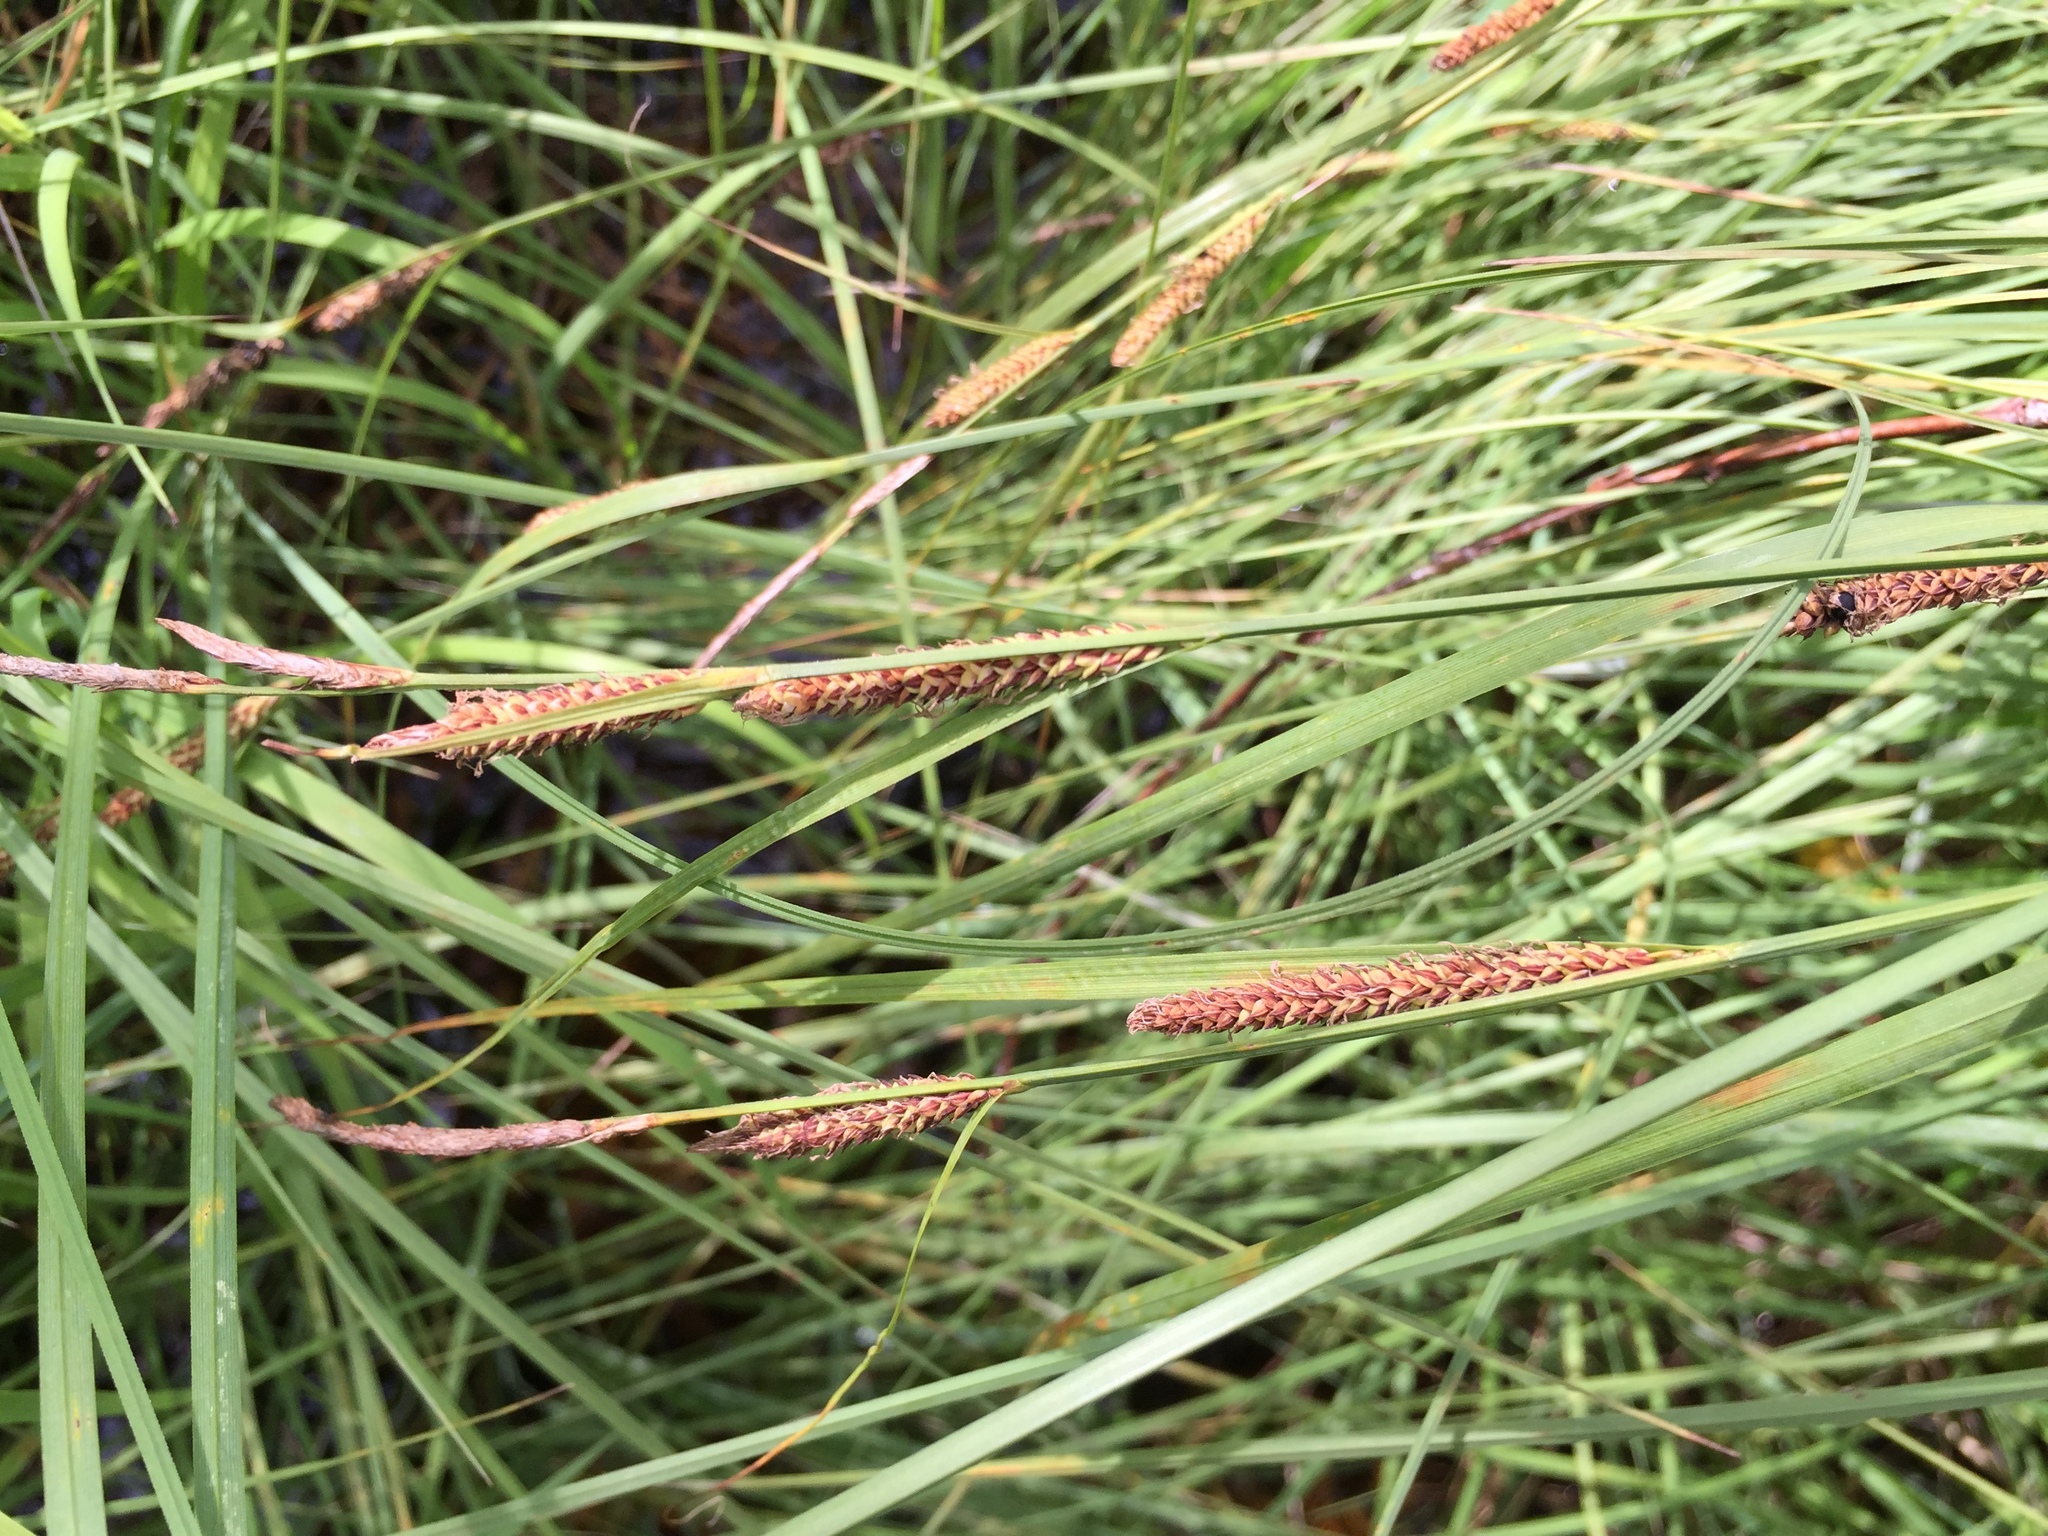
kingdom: Plantae
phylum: Tracheophyta
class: Liliopsida
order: Poales
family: Cyperaceae
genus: Carex
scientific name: Carex aquatilis
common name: Water sedge
